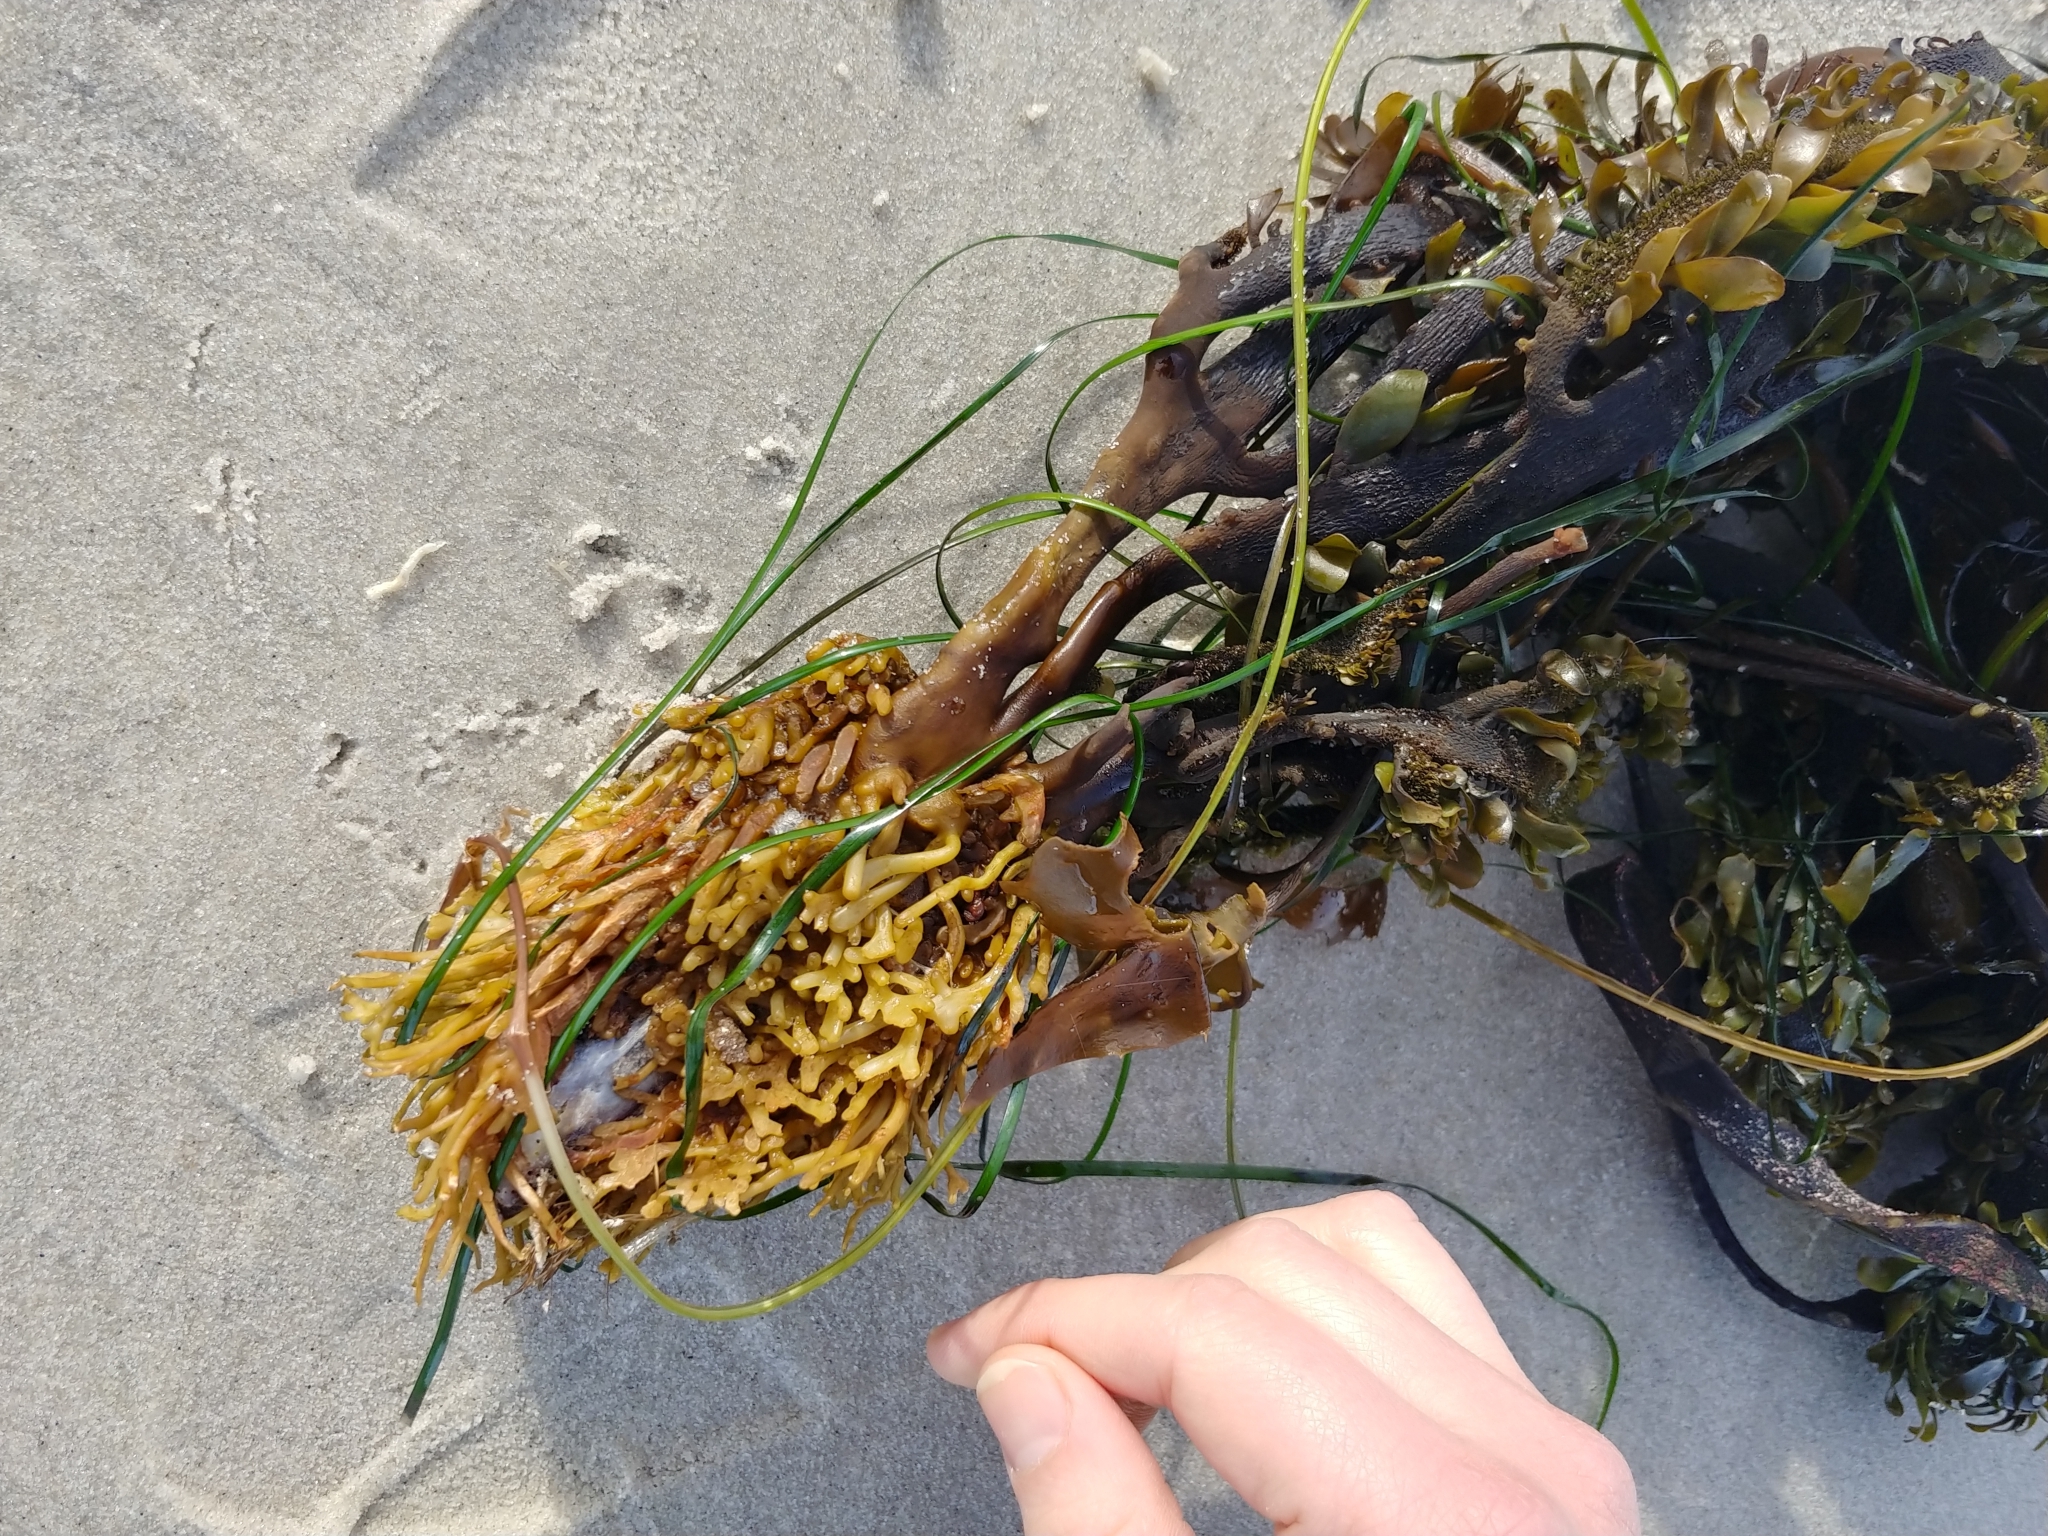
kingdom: Chromista
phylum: Ochrophyta
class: Phaeophyceae
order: Laminariales
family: Lessoniaceae
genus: Egregia
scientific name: Egregia menziesii
